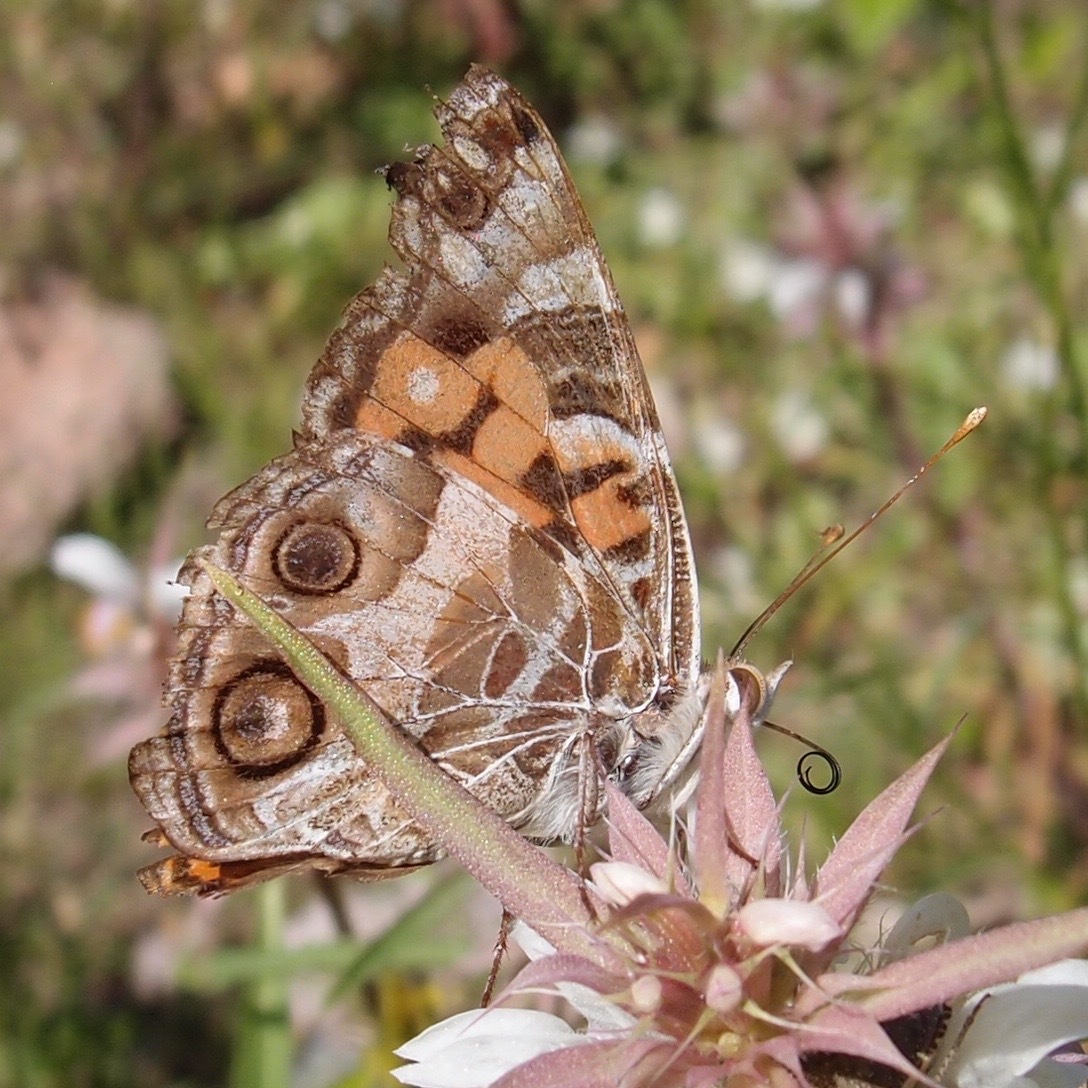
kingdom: Animalia
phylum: Arthropoda
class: Insecta
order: Lepidoptera
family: Nymphalidae
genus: Vanessa
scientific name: Vanessa virginiensis
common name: American lady
